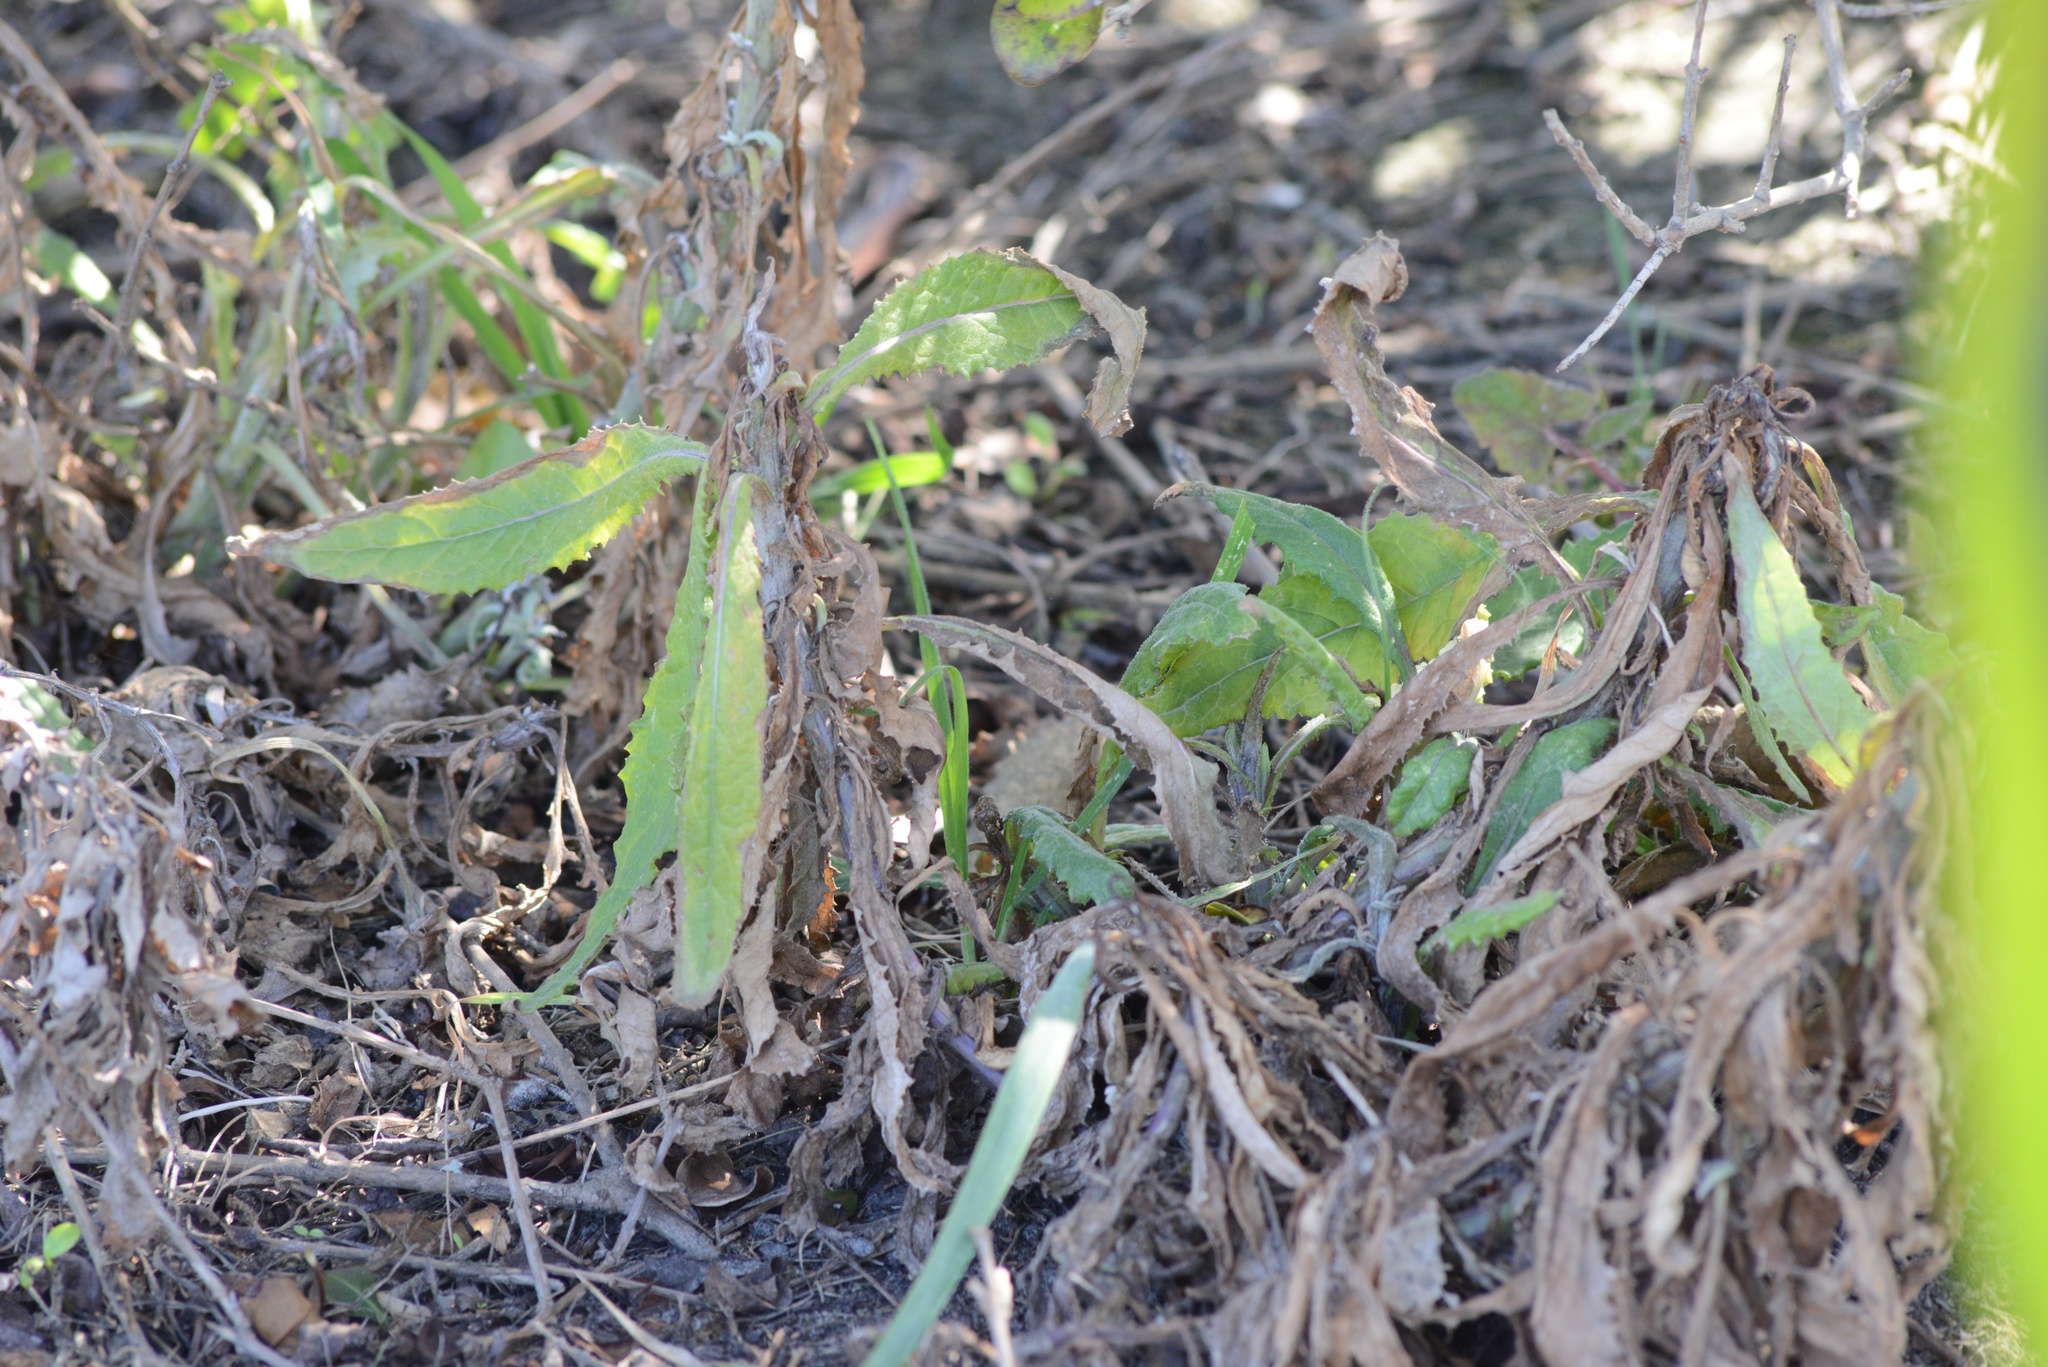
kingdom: Plantae
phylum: Tracheophyta
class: Magnoliopsida
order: Asterales
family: Asteraceae
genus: Senecio
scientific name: Senecio minimus
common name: Toothed fireweed
